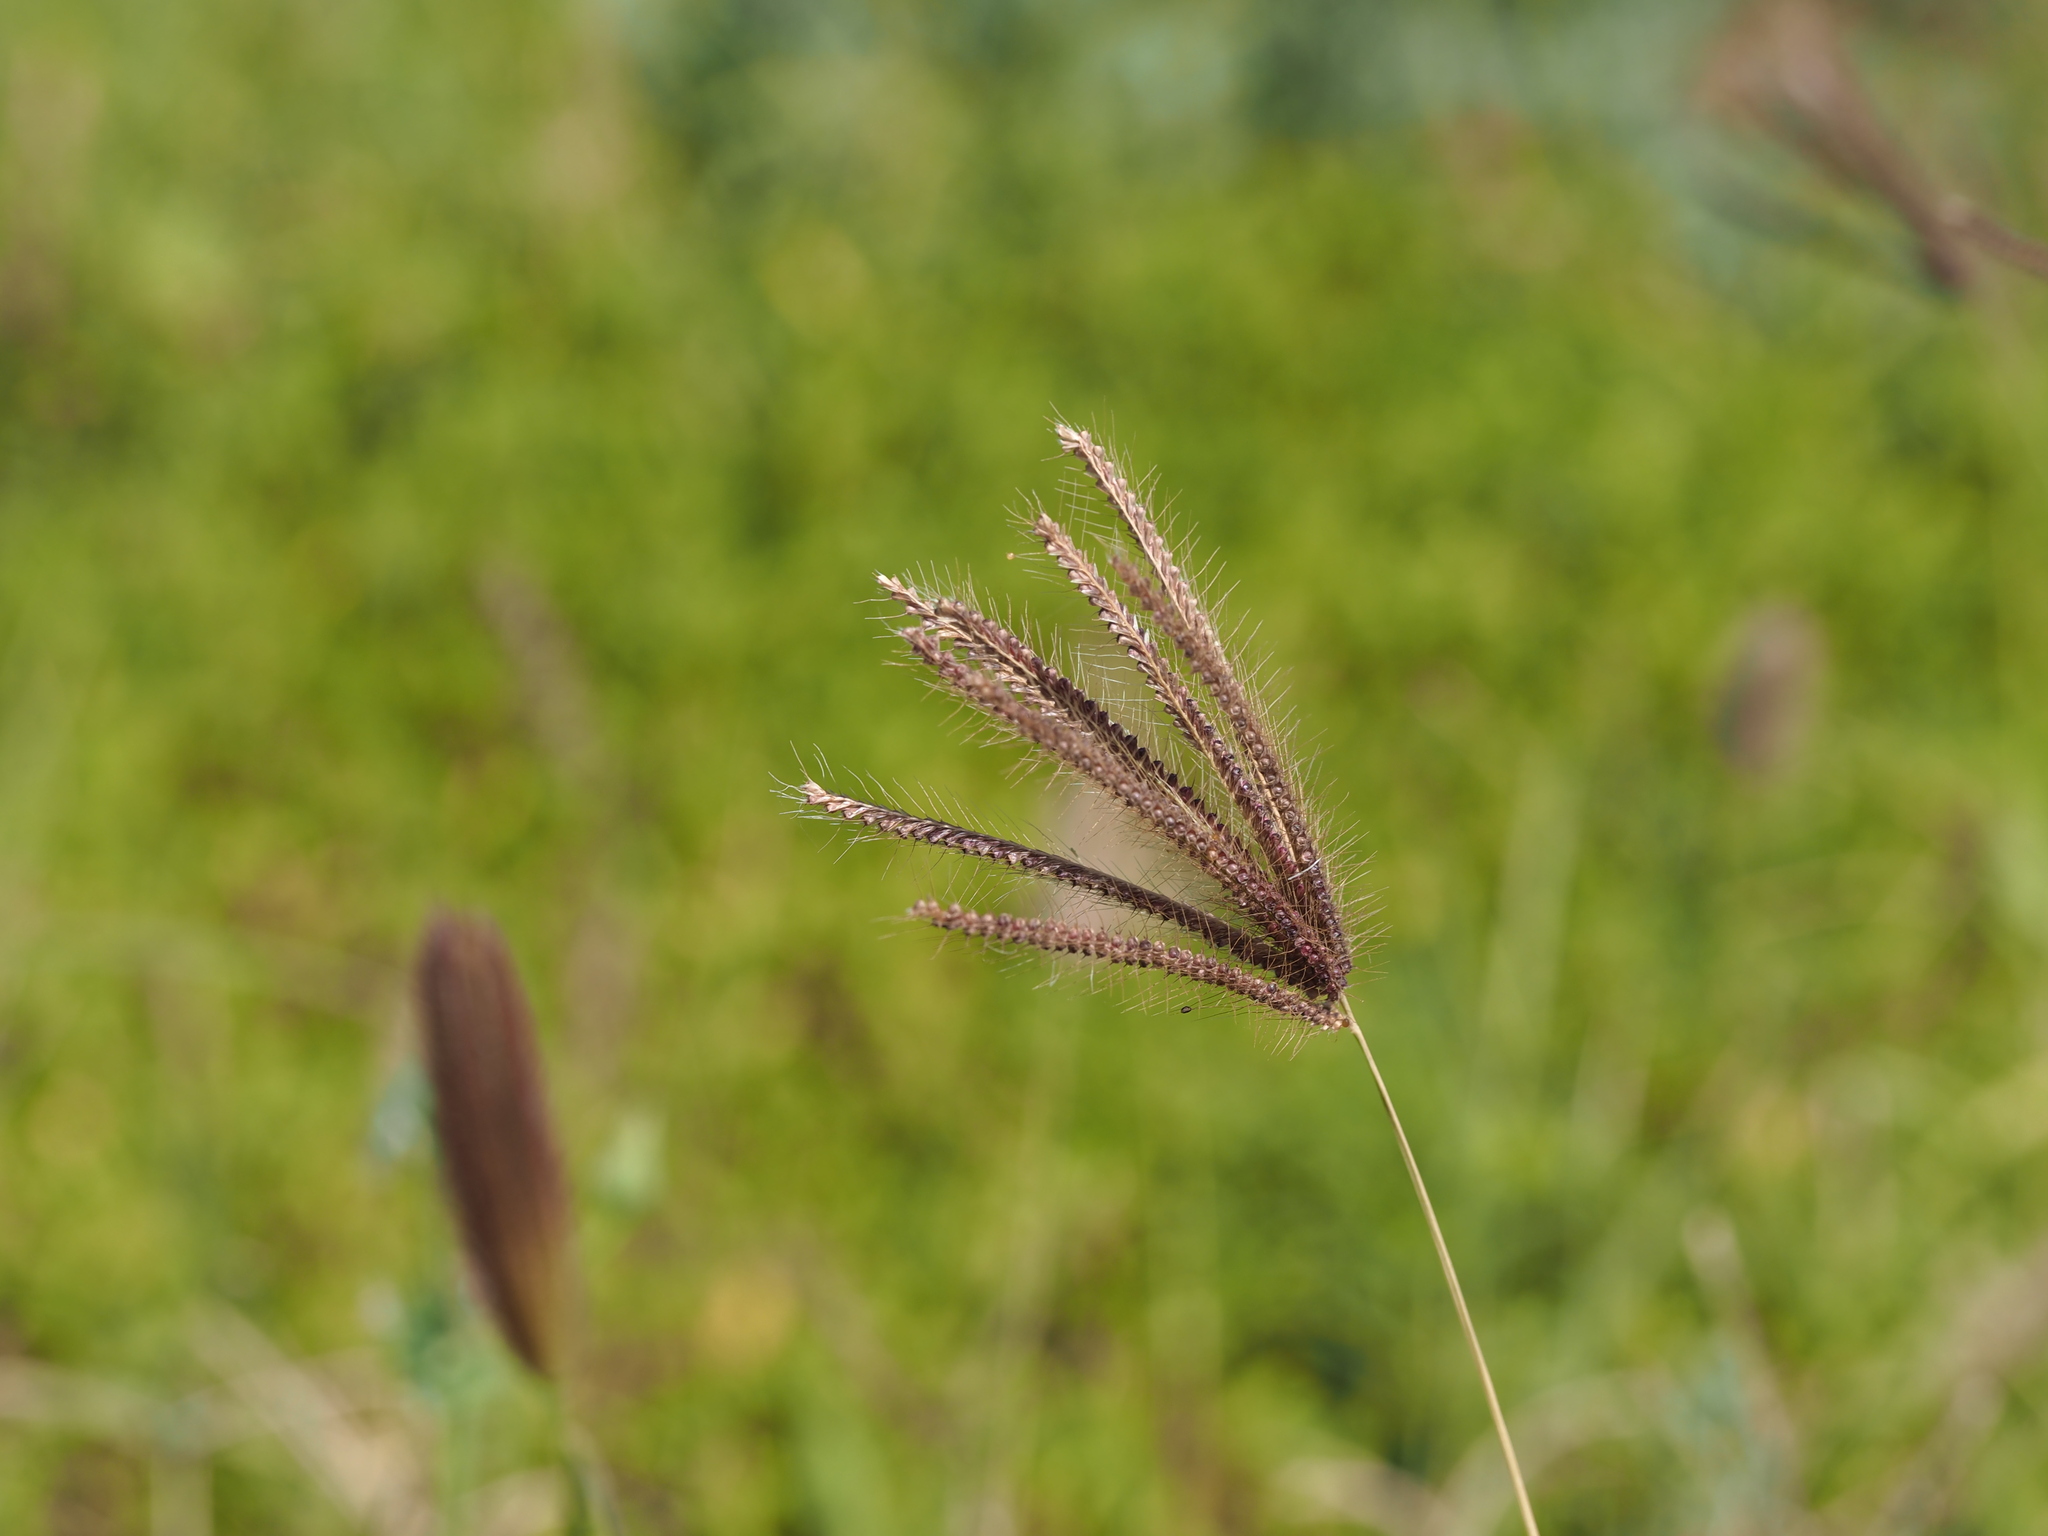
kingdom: Plantae
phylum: Tracheophyta
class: Liliopsida
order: Poales
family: Poaceae
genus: Chloris
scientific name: Chloris barbata
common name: Swollen fingergrass
